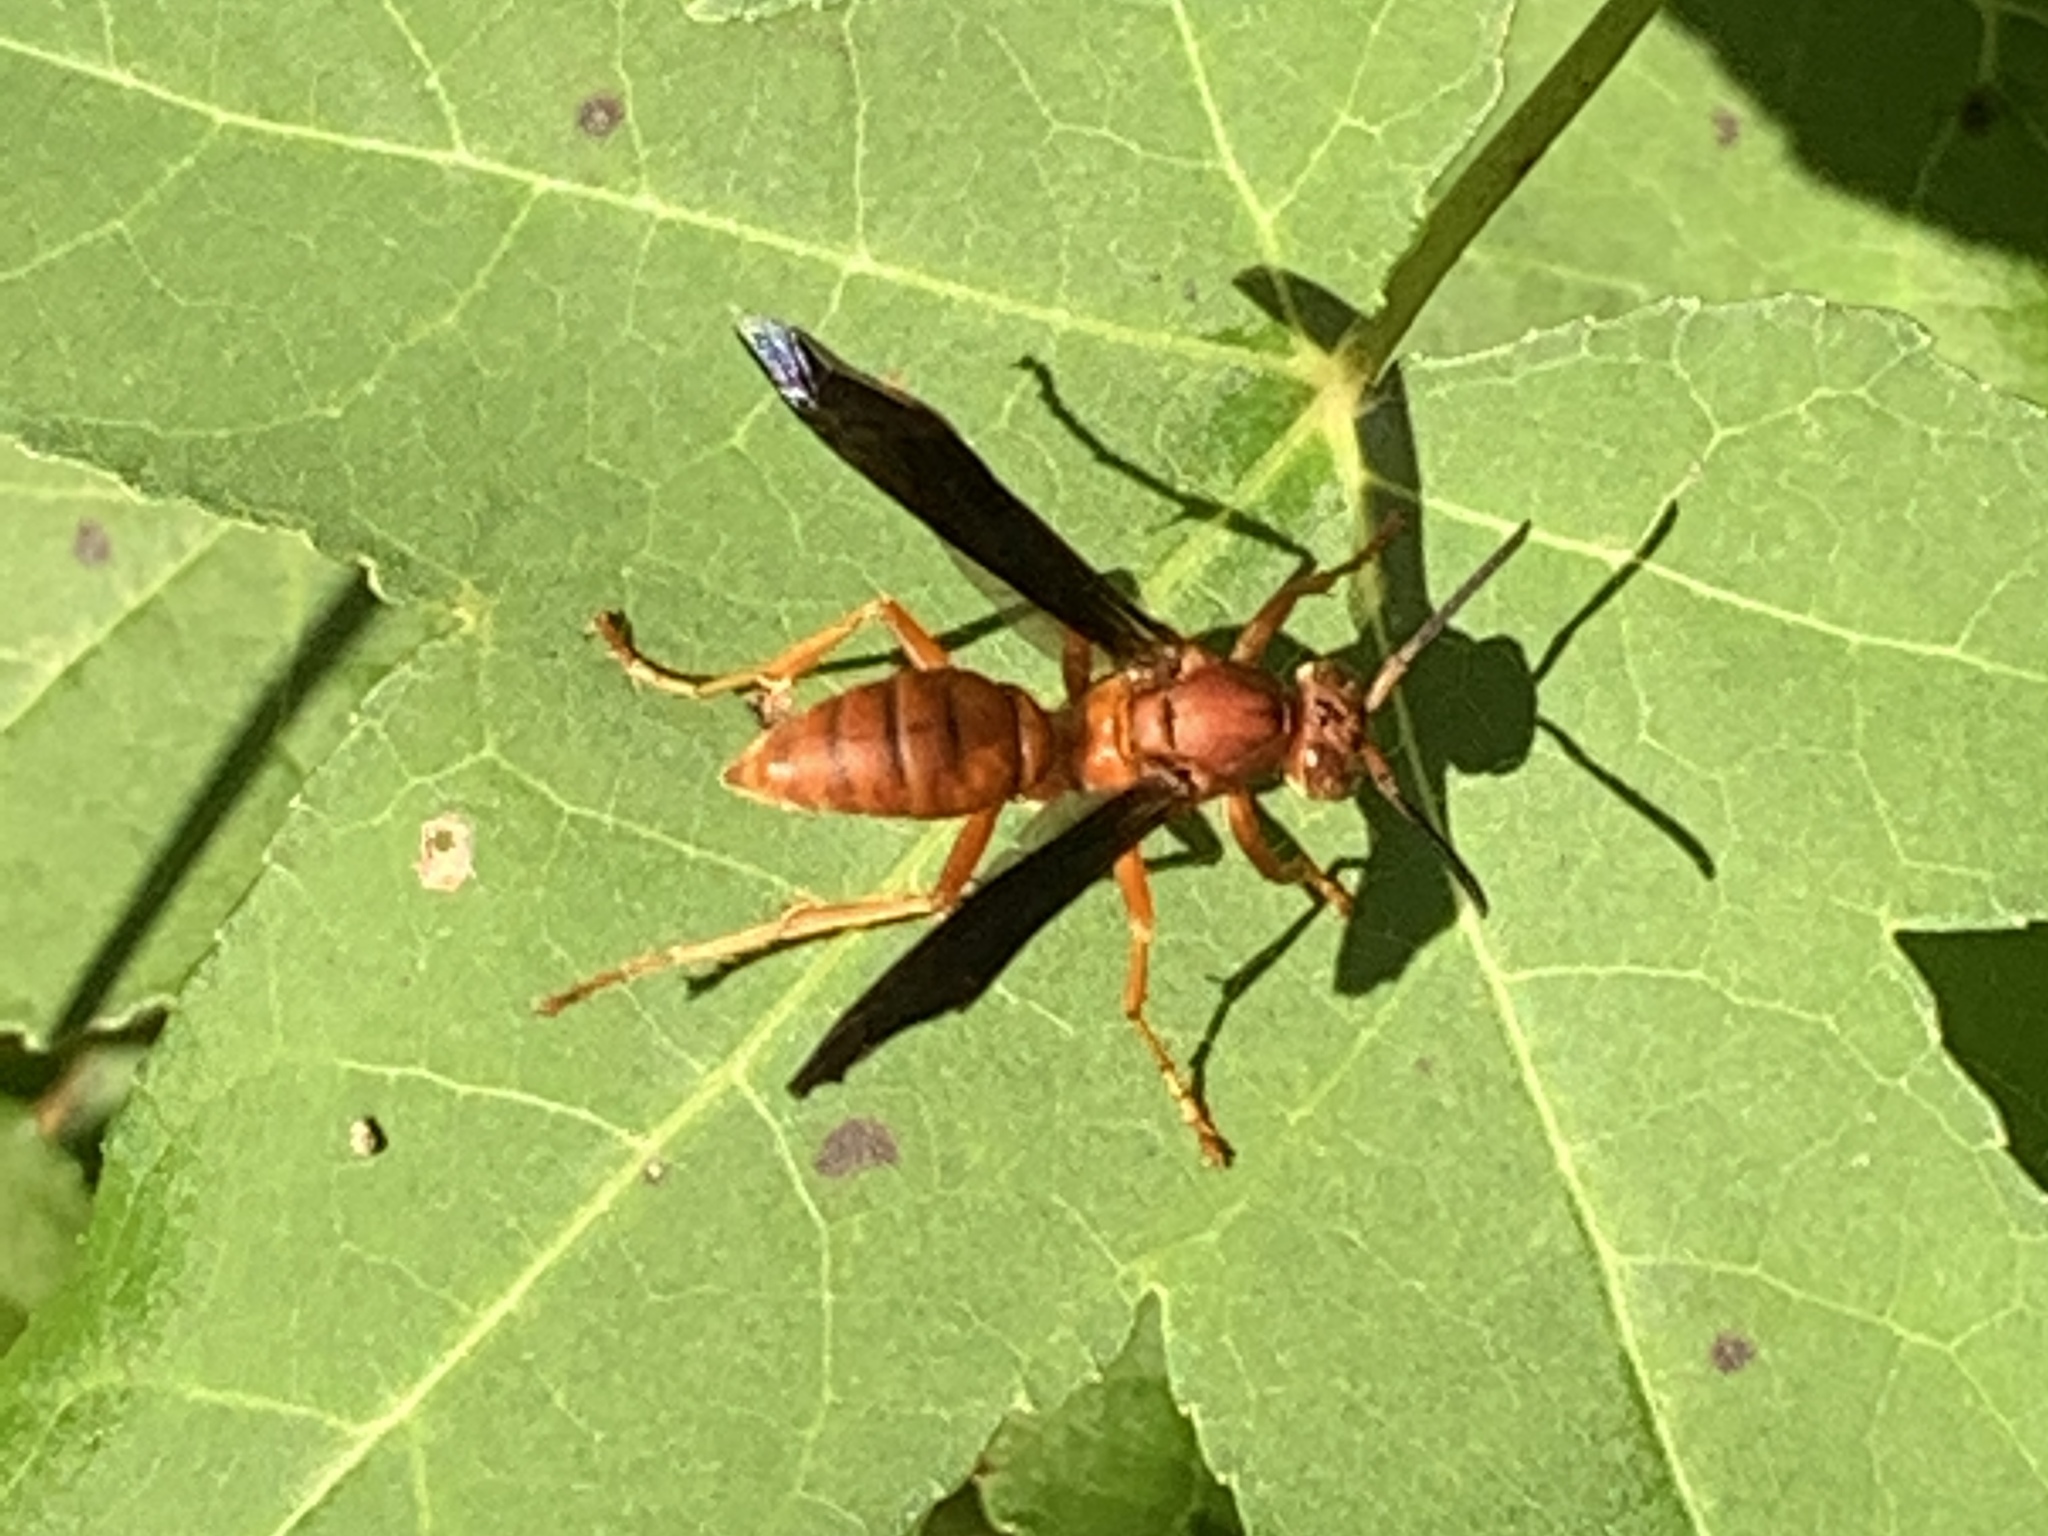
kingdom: Animalia
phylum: Arthropoda
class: Insecta
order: Hymenoptera
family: Eumenidae
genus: Polistes
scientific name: Polistes carolina
